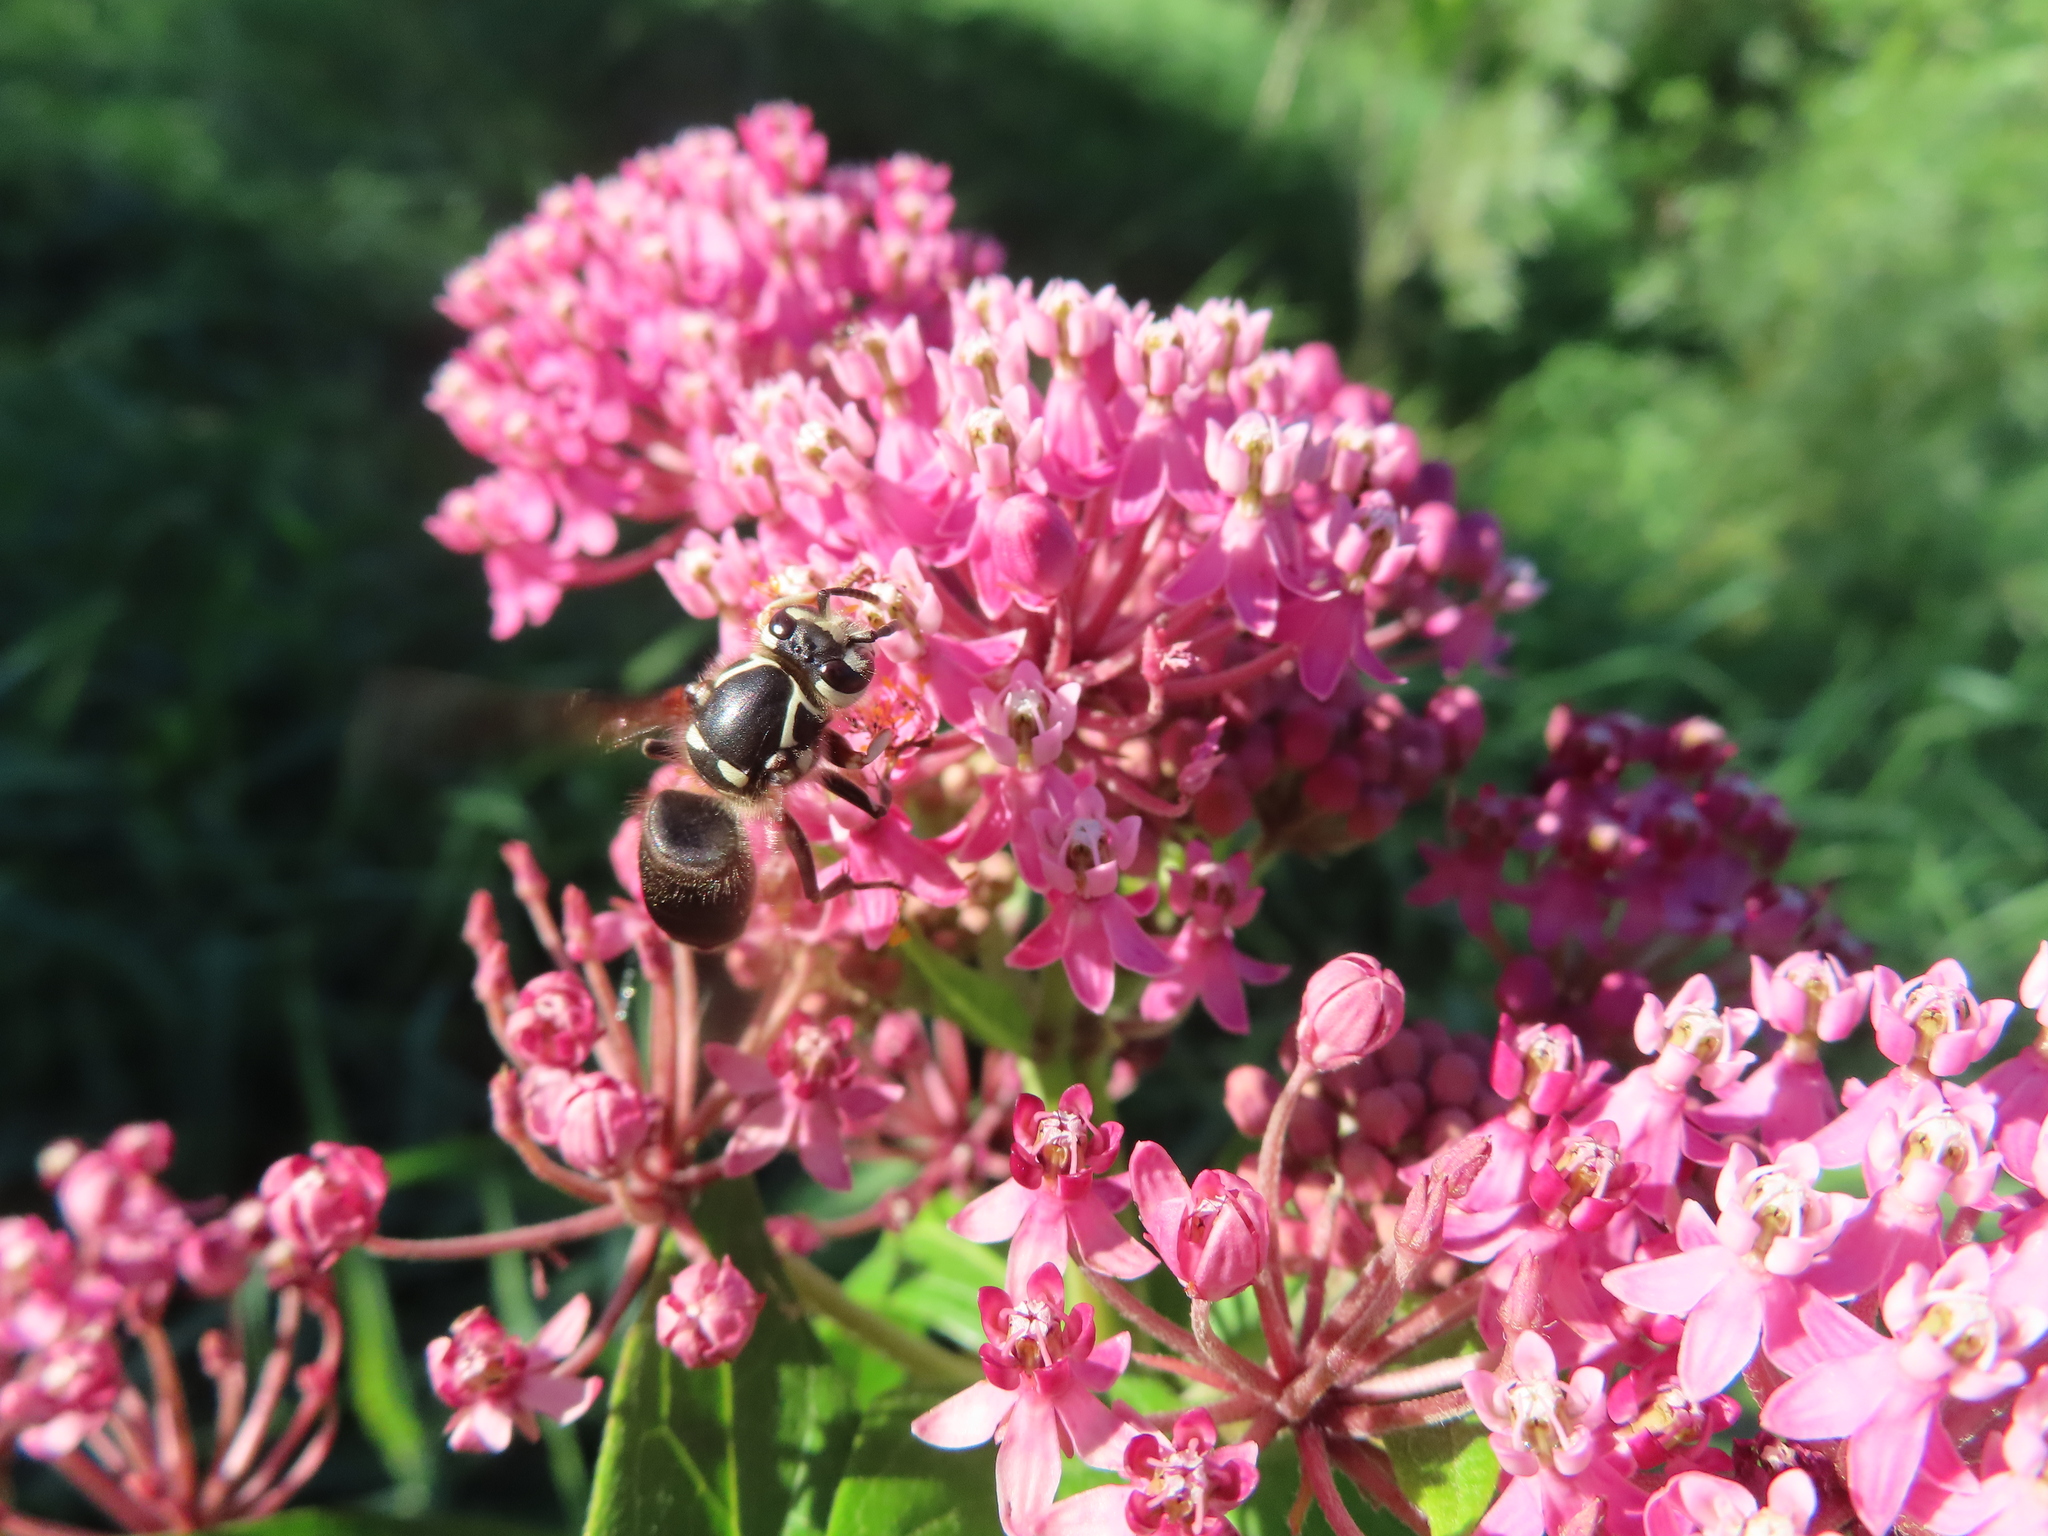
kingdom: Animalia
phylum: Arthropoda
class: Insecta
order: Hymenoptera
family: Vespidae
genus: Dolichovespula
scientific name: Dolichovespula maculata
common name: Bald-faced hornet
